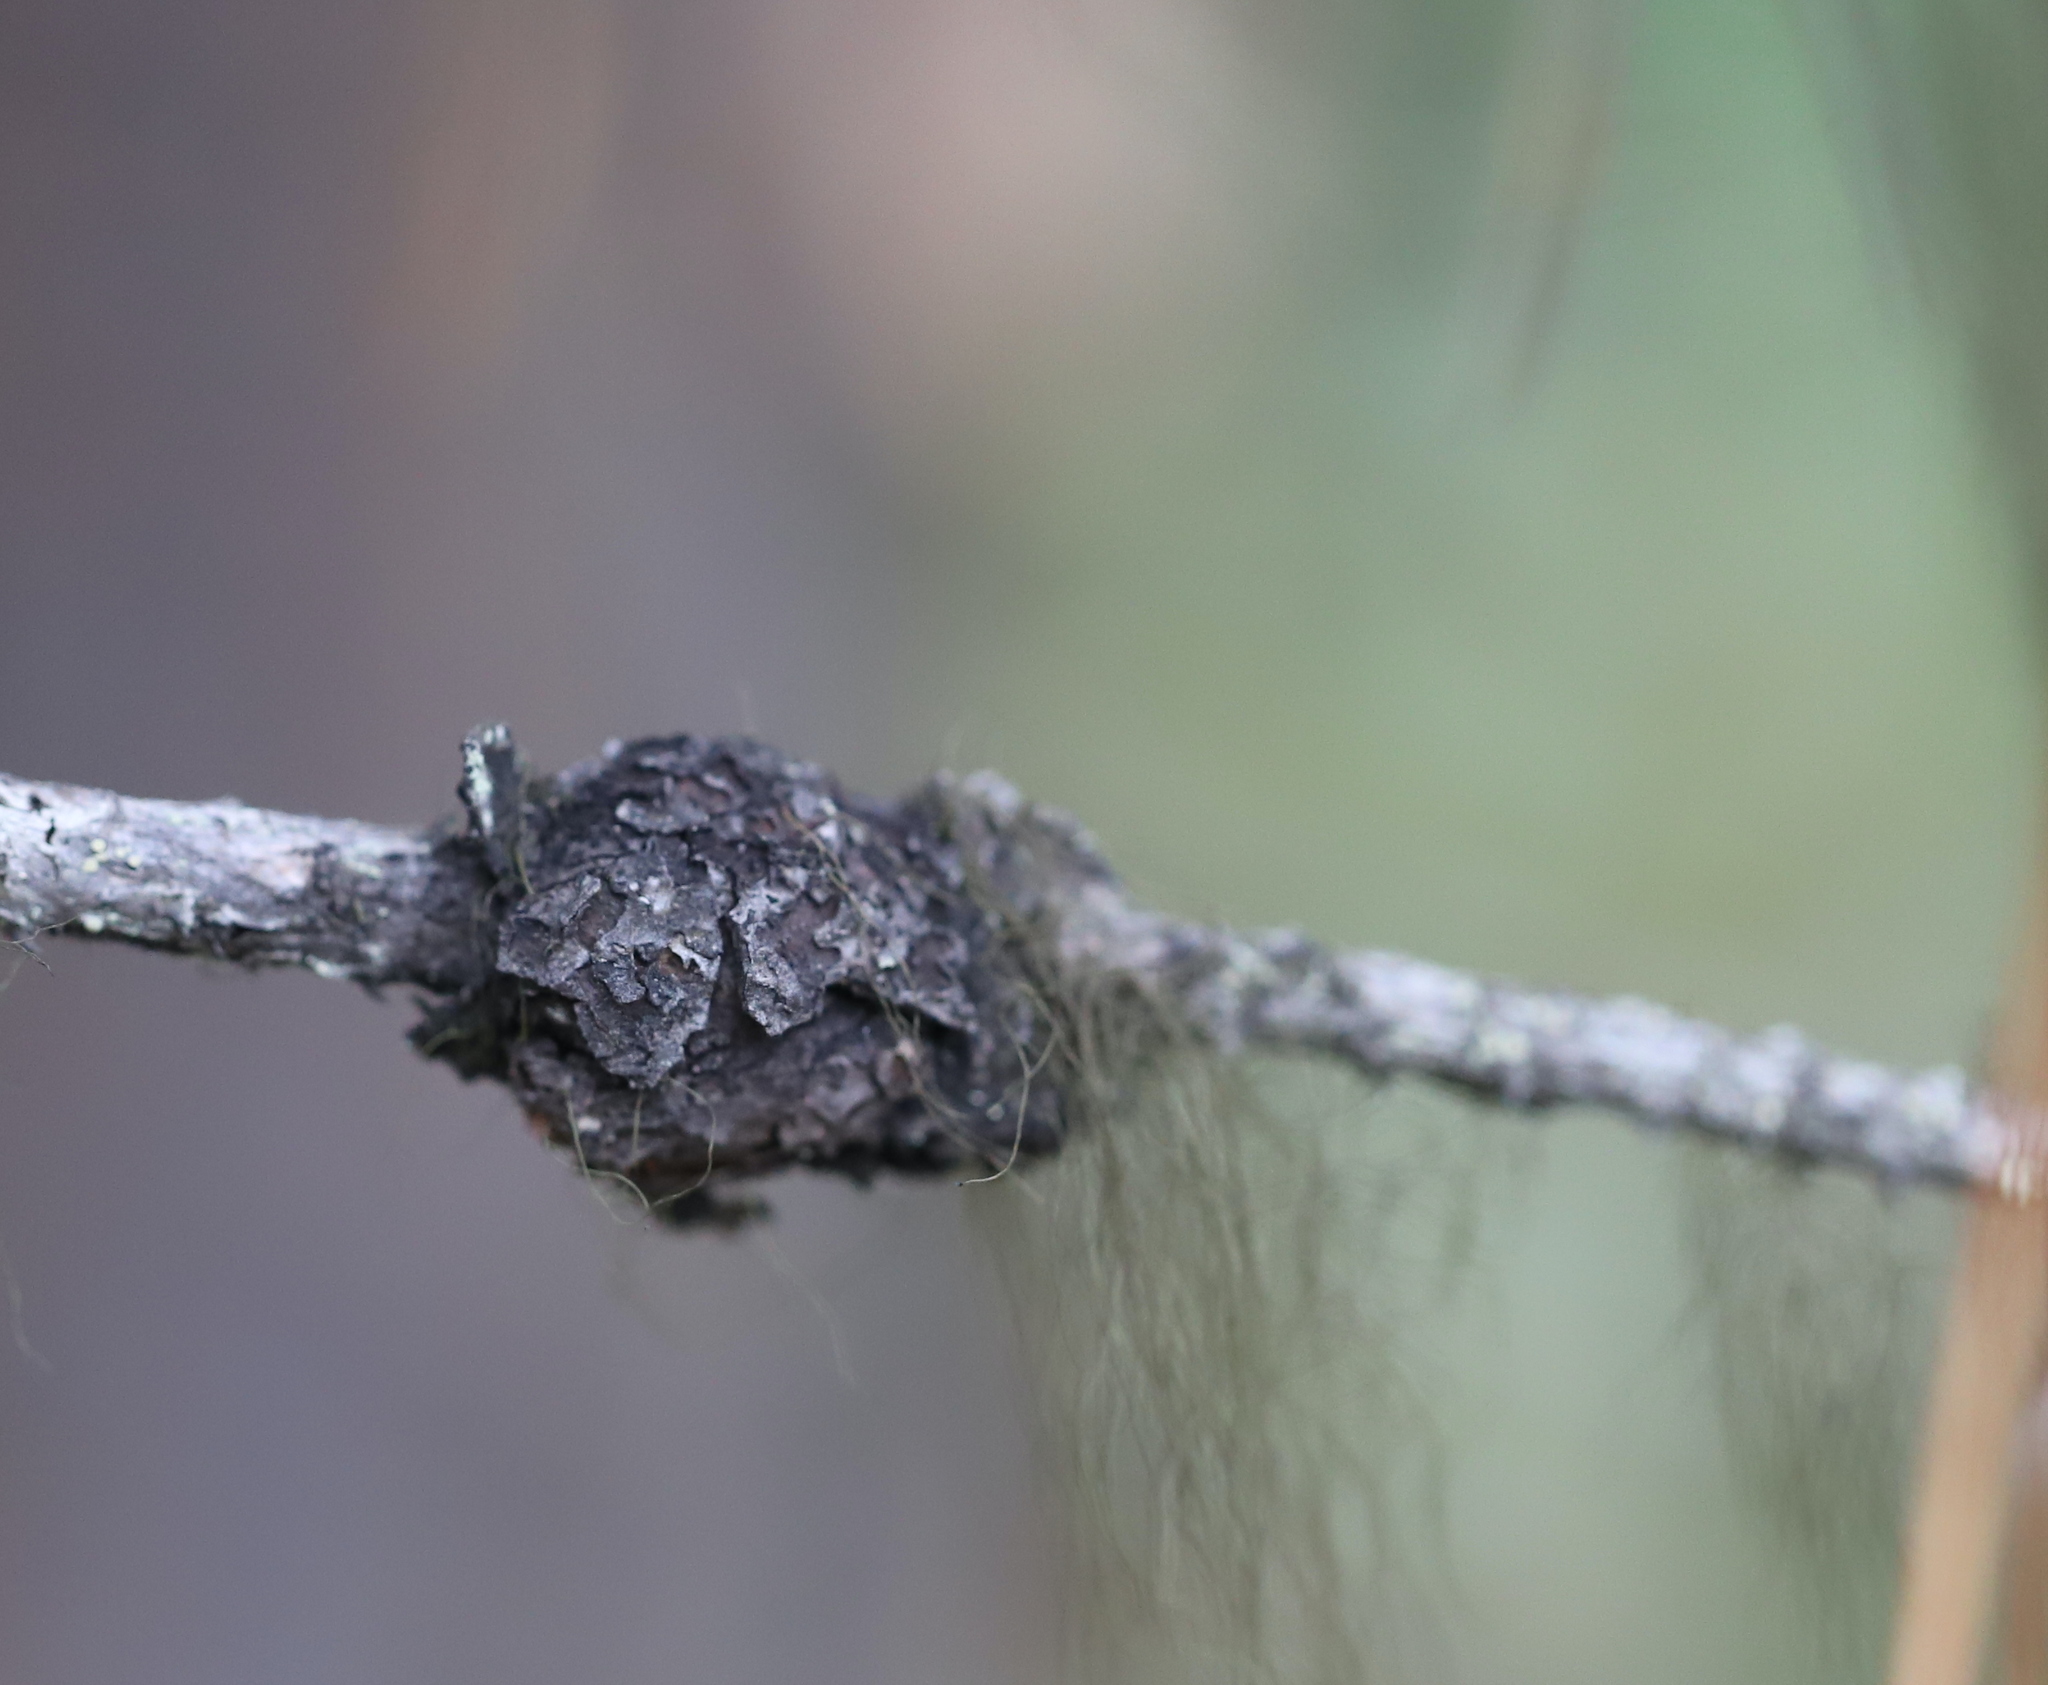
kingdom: Fungi
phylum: Basidiomycota
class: Pucciniomycetes
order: Pucciniales
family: Cronartiaceae
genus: Cronartium
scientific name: Cronartium harknessii
